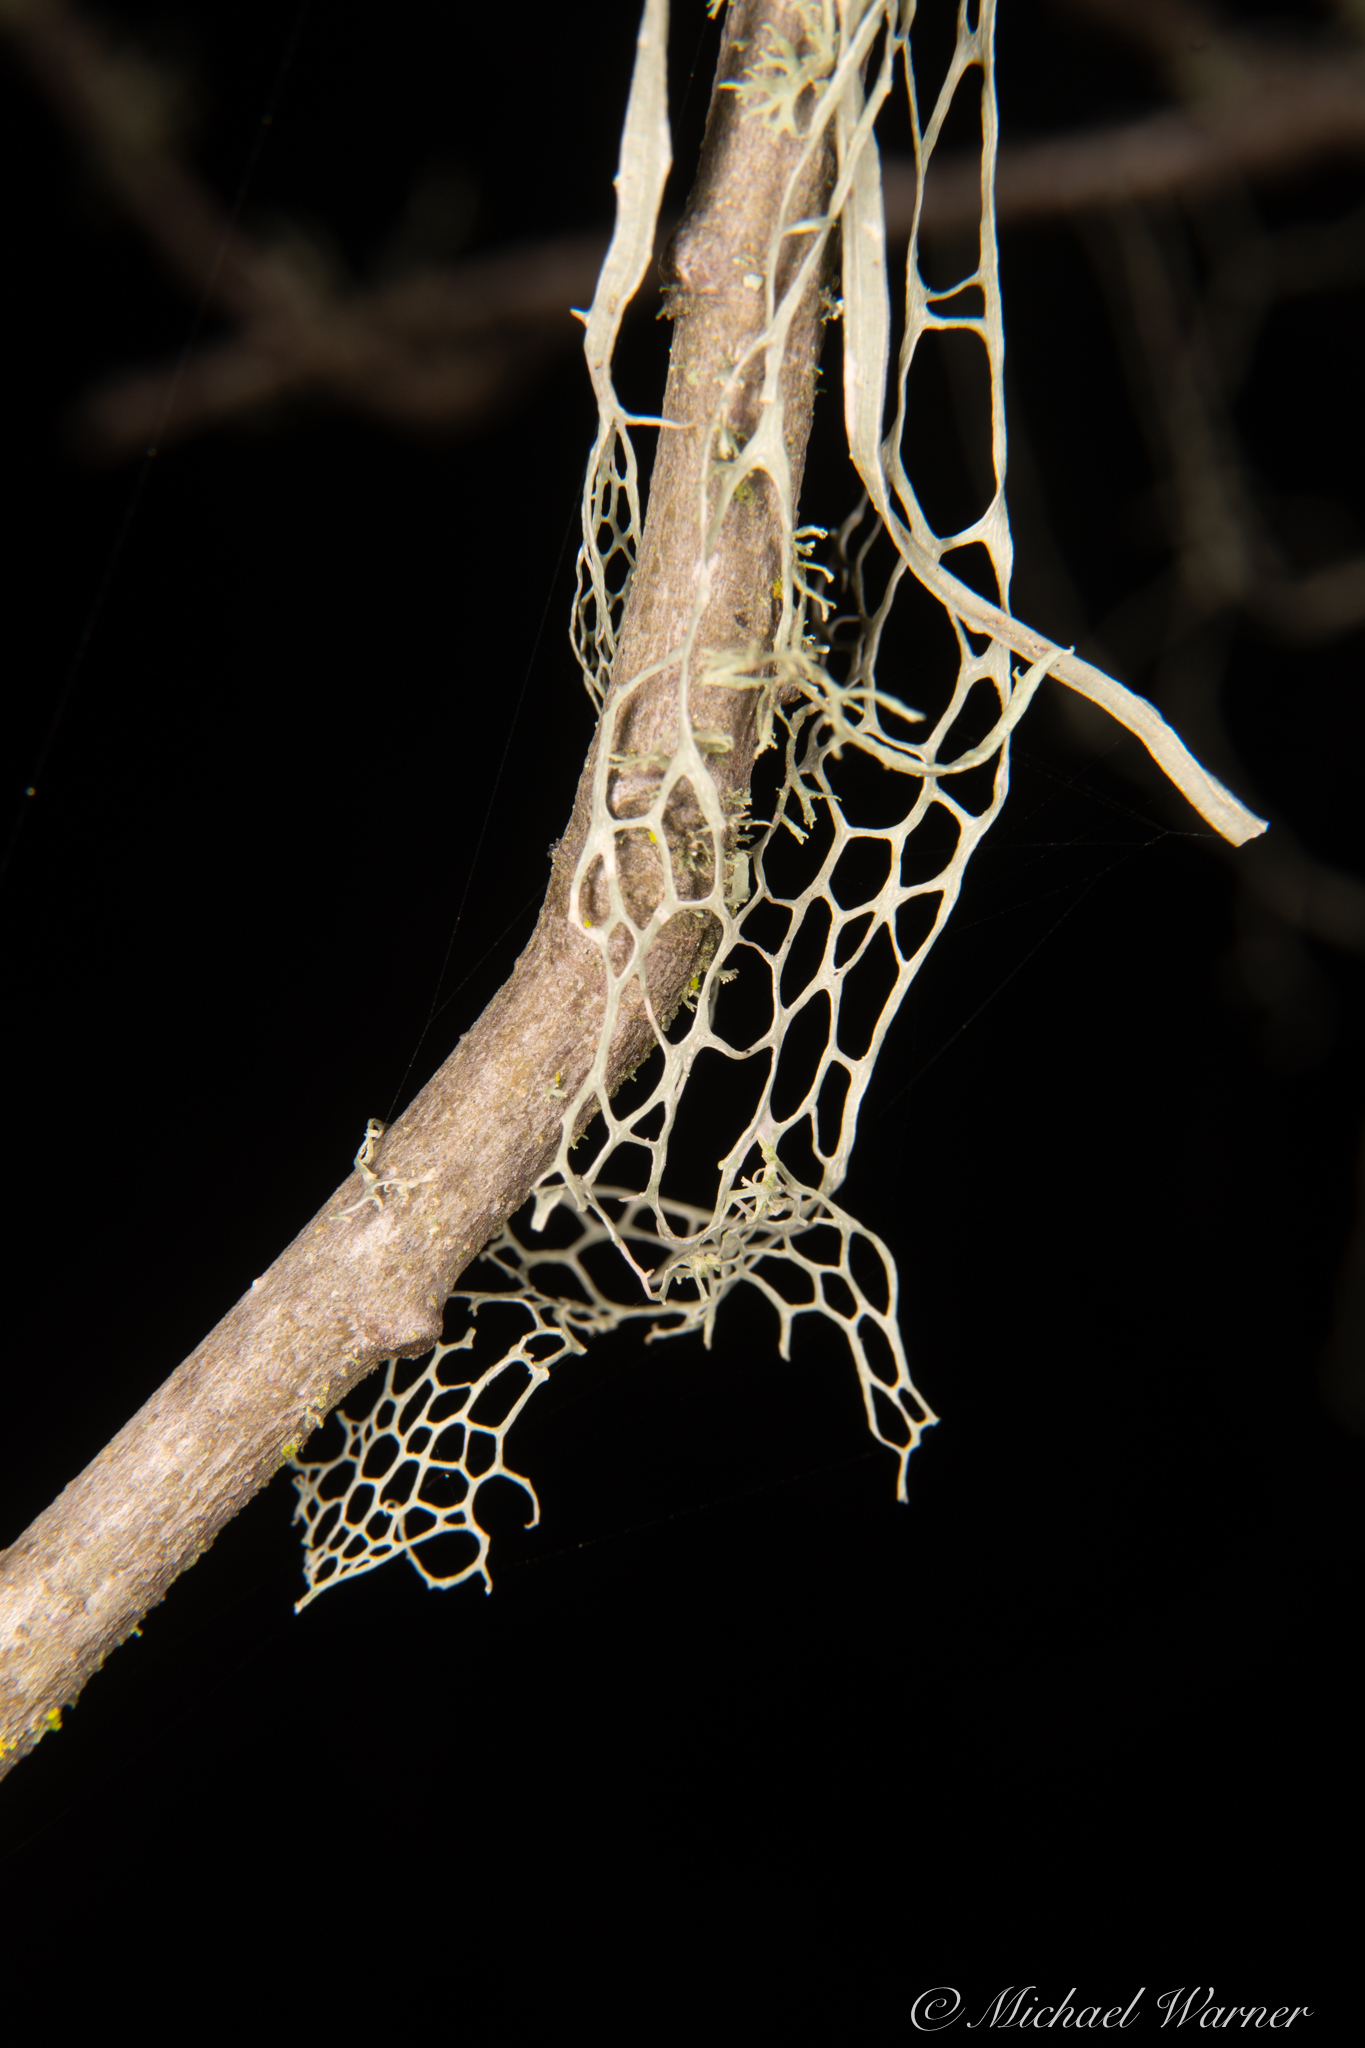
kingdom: Fungi
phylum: Ascomycota
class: Lecanoromycetes
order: Lecanorales
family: Ramalinaceae
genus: Ramalina
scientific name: Ramalina menziesii
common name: Lace lichen
